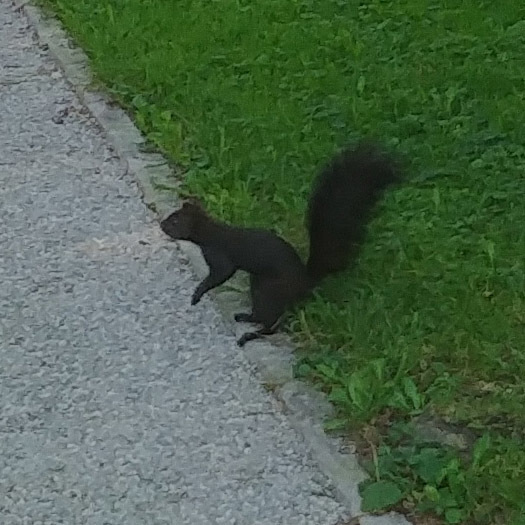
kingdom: Animalia
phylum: Chordata
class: Mammalia
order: Rodentia
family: Sciuridae
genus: Sciurus
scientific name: Sciurus vulgaris
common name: Eurasian red squirrel
